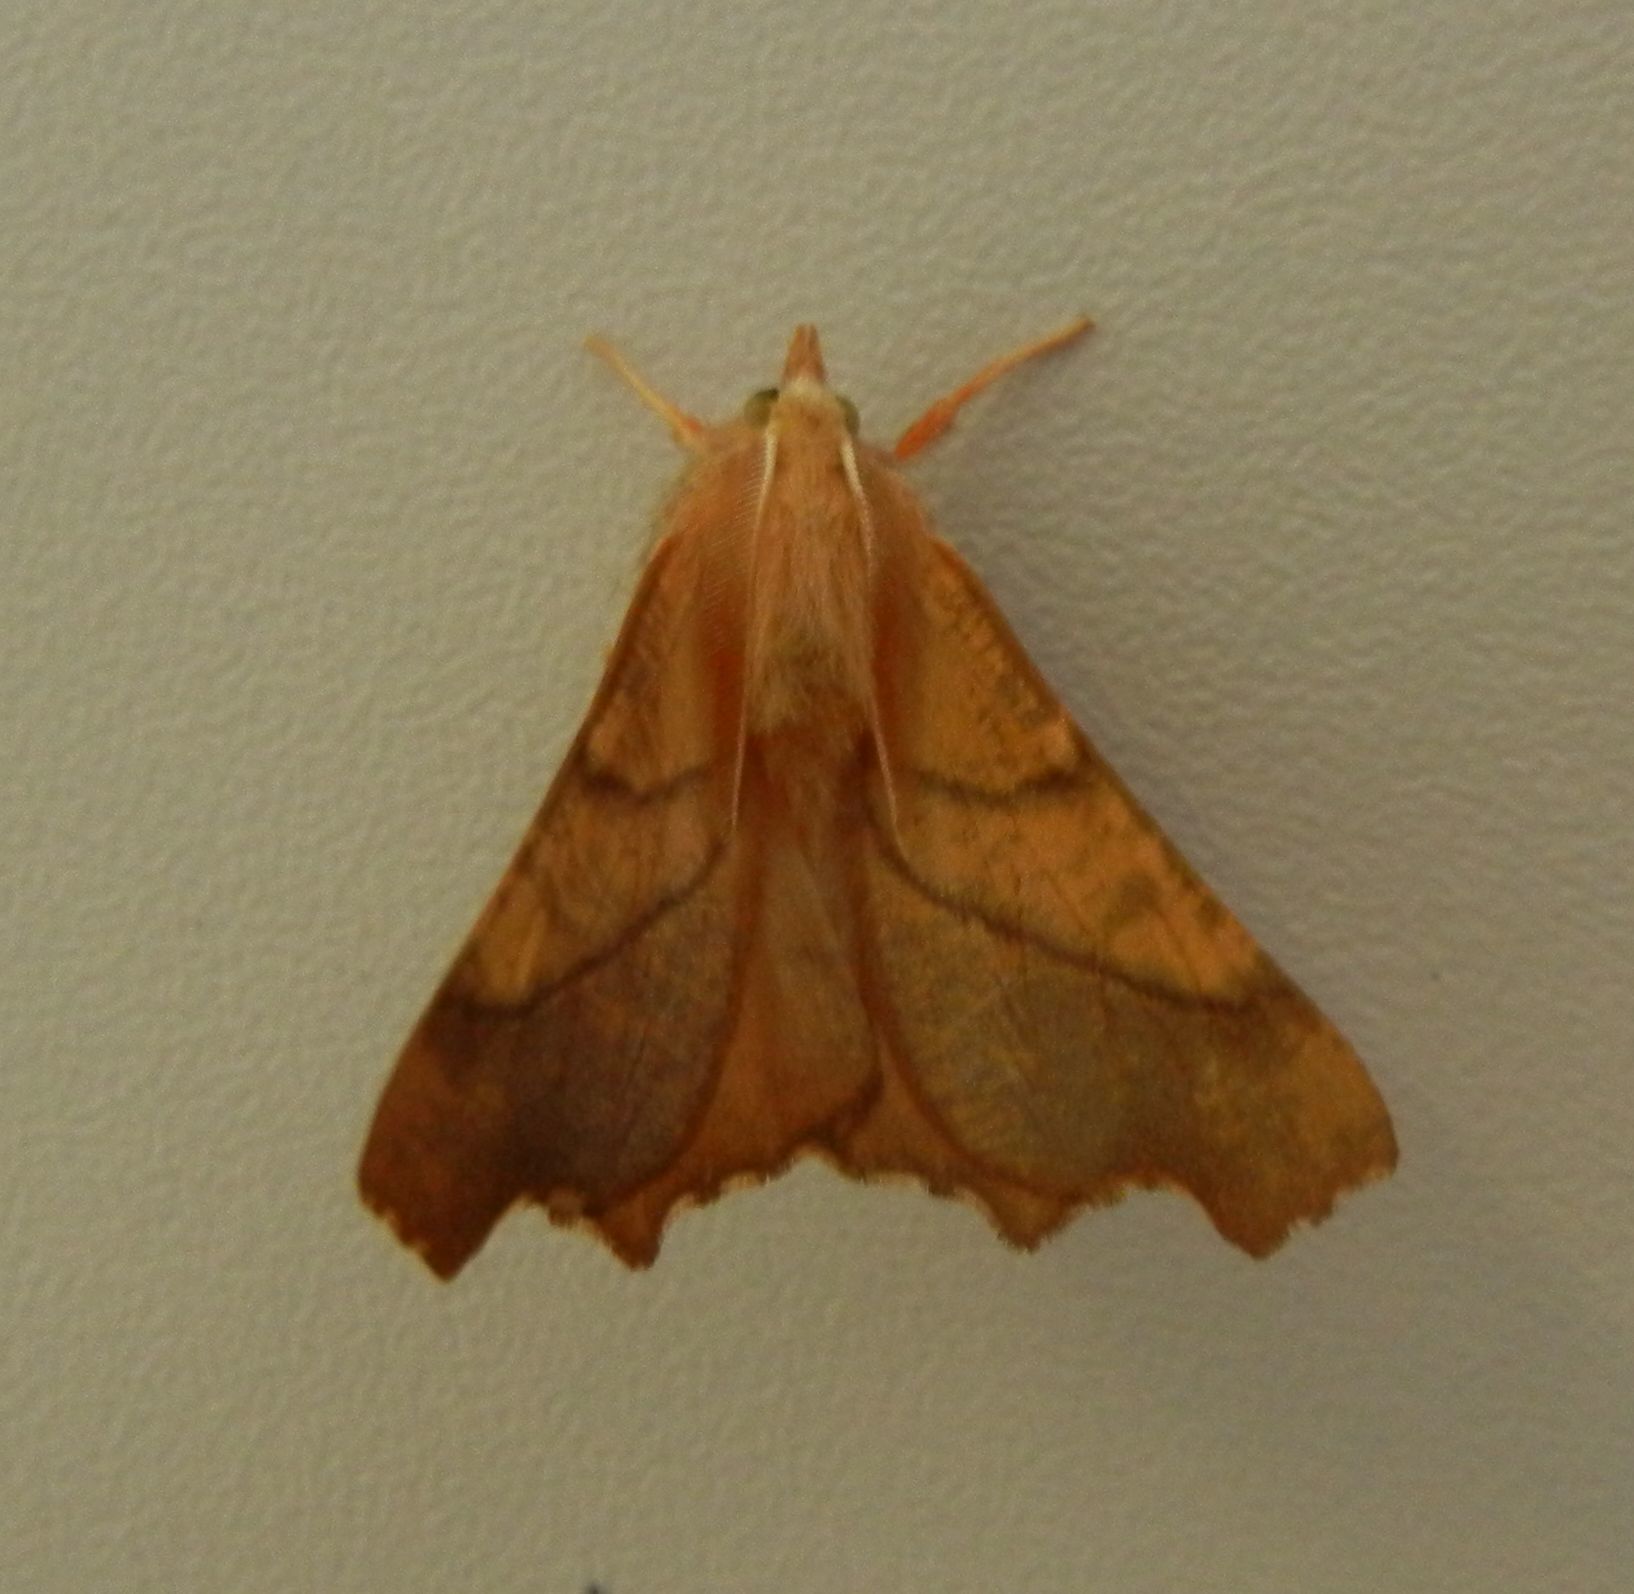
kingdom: Animalia
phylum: Arthropoda
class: Insecta
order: Lepidoptera
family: Geometridae
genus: Ennomos
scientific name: Ennomos fuscantaria
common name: Dusky thorn
